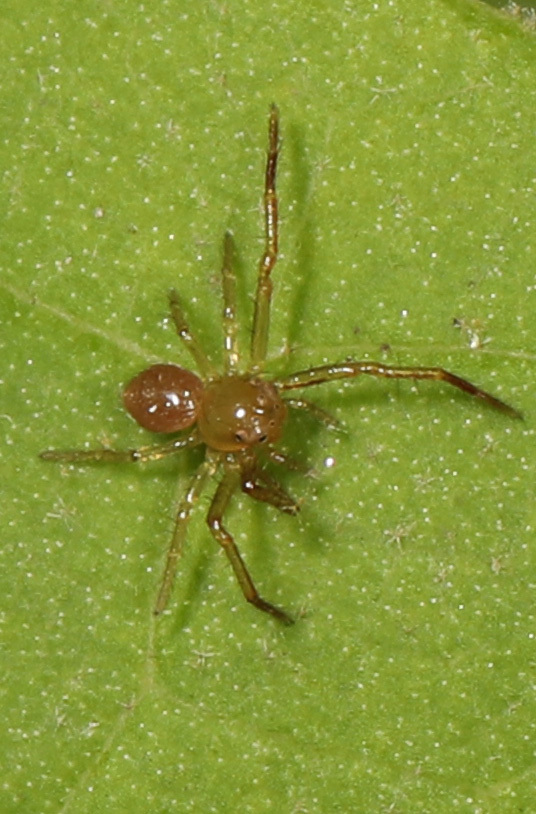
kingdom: Animalia
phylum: Arthropoda
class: Arachnida
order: Araneae
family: Thomisidae
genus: Synema
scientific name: Synema parvulum
